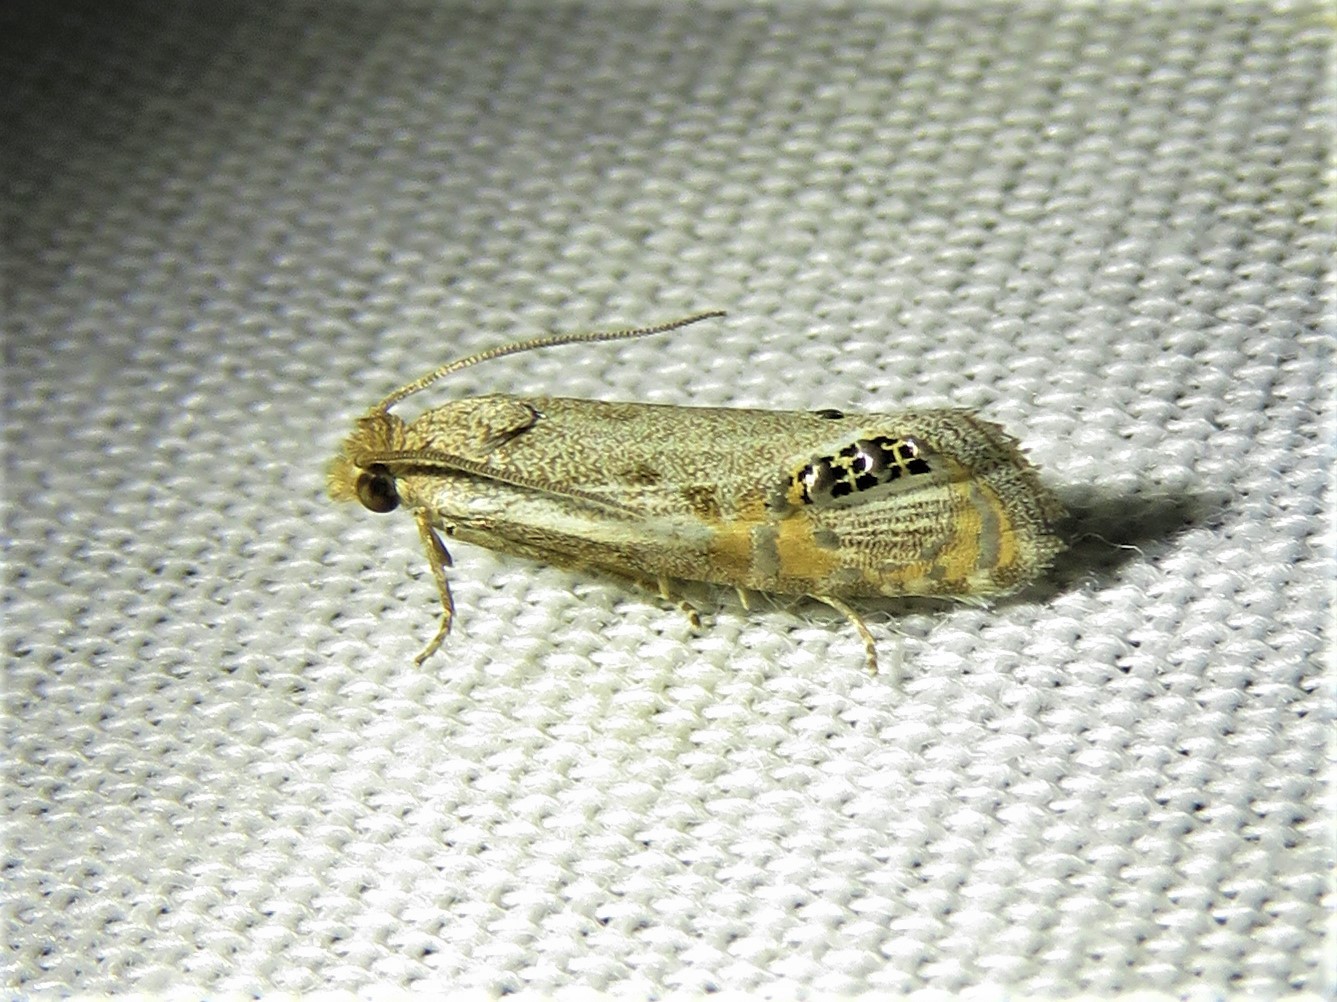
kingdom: Animalia
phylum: Arthropoda
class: Insecta
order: Lepidoptera
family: Tortricidae
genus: Pelochrista
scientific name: Pelochrista scintillana
